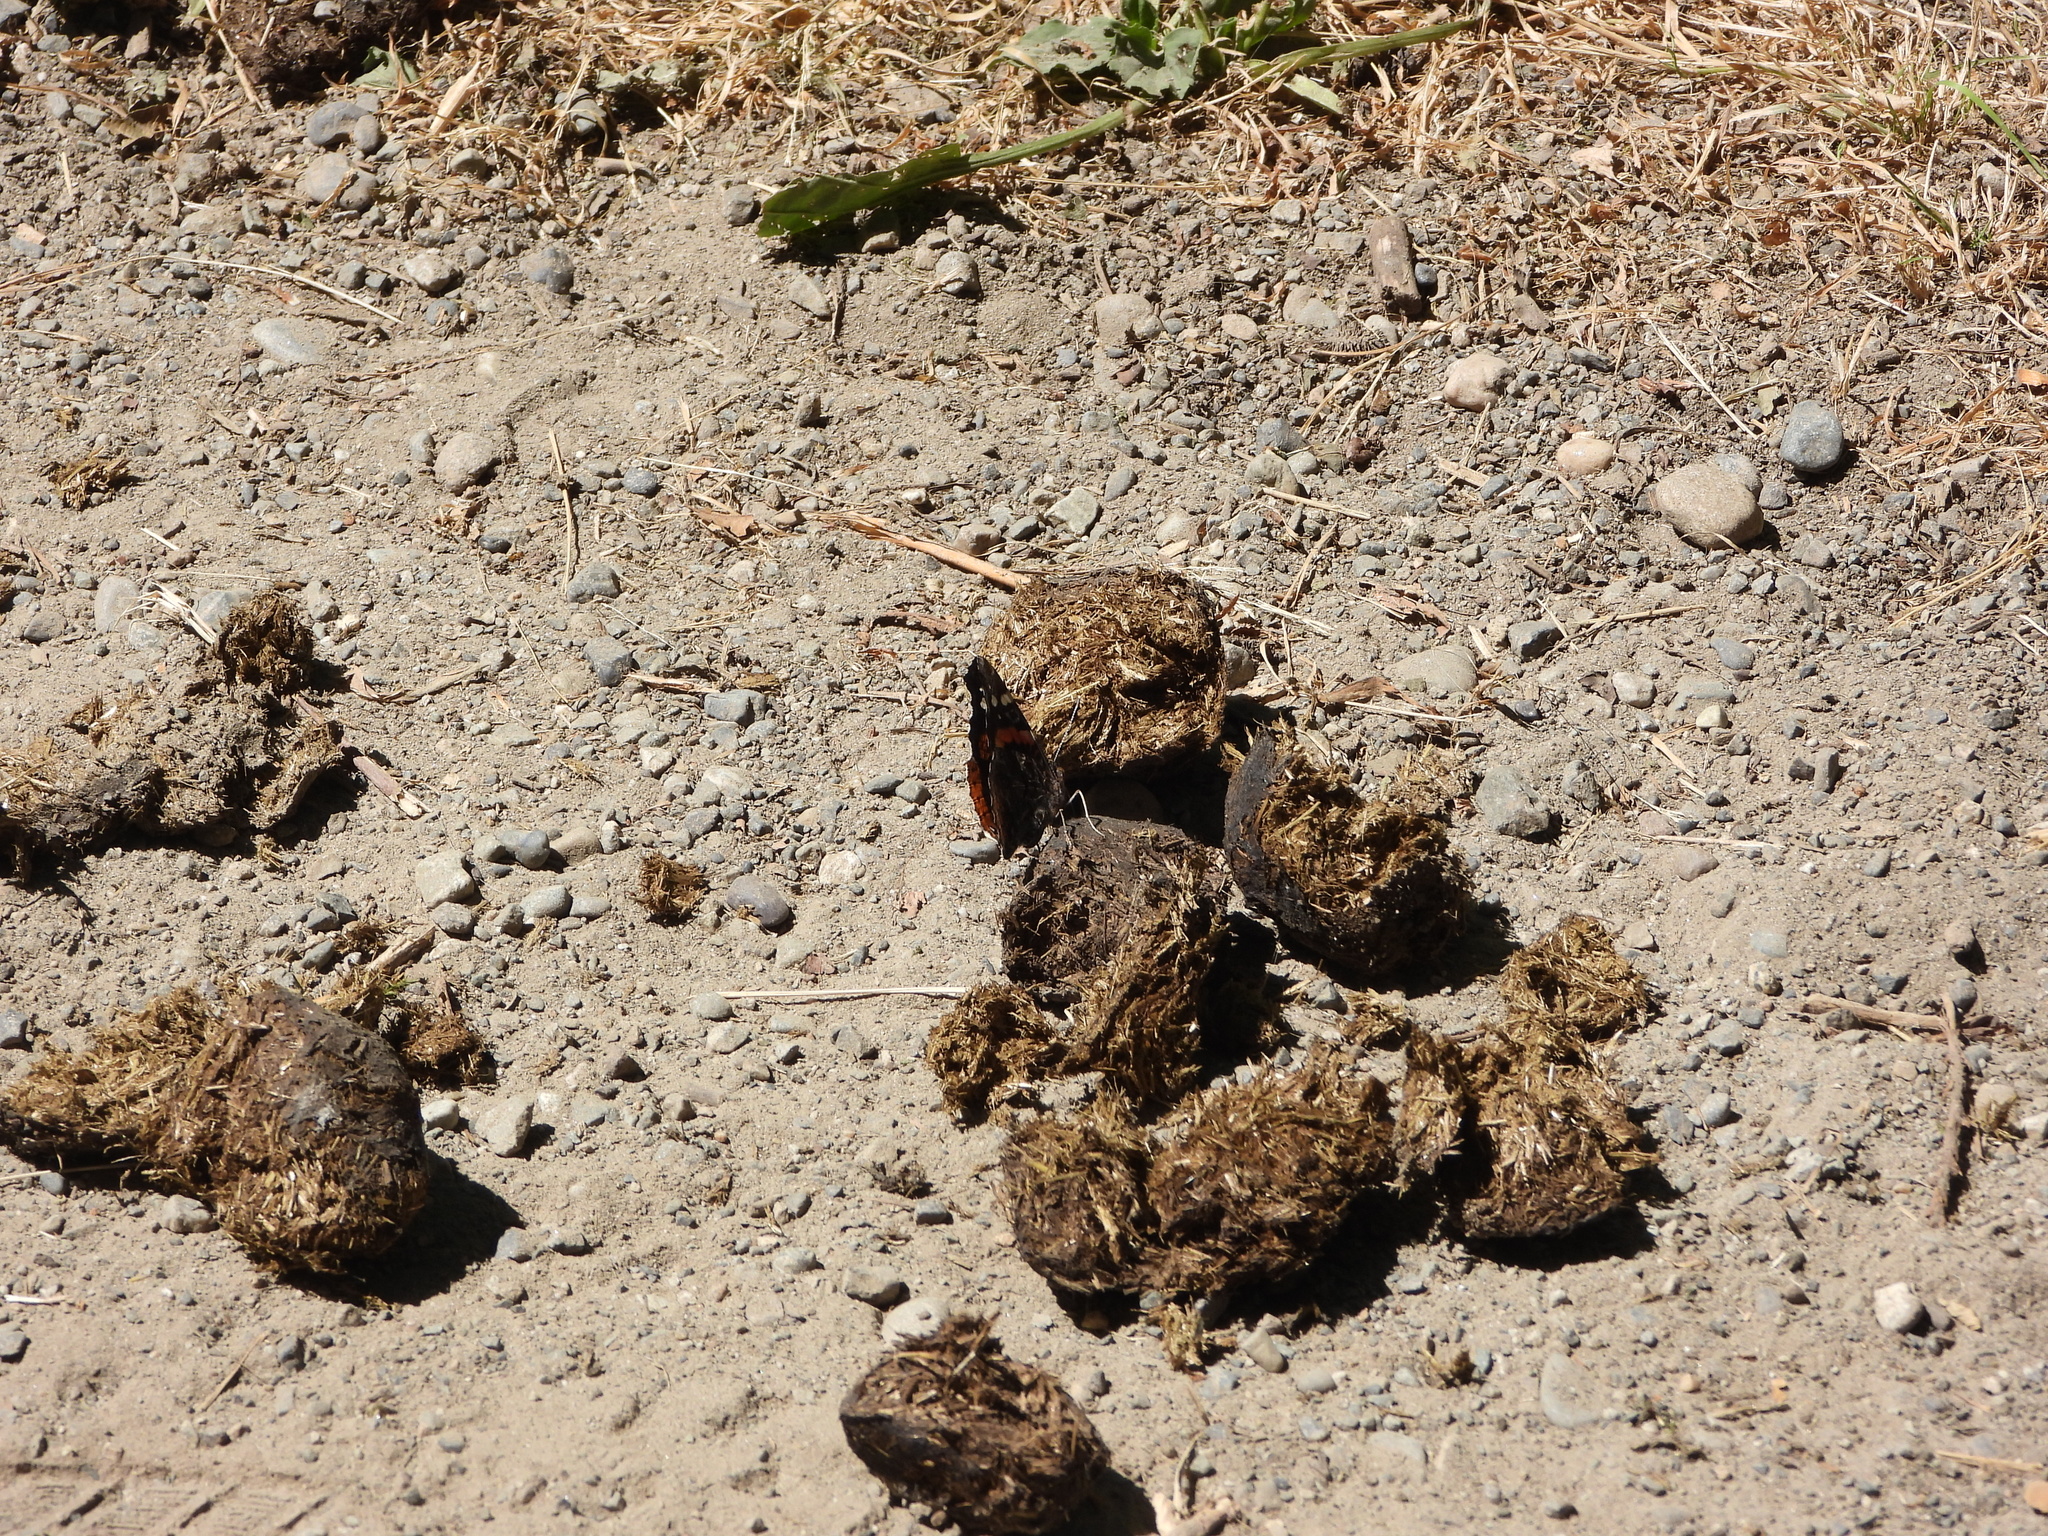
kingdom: Animalia
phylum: Arthropoda
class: Insecta
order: Lepidoptera
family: Nymphalidae
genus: Vanessa
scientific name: Vanessa atalanta
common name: Red admiral
